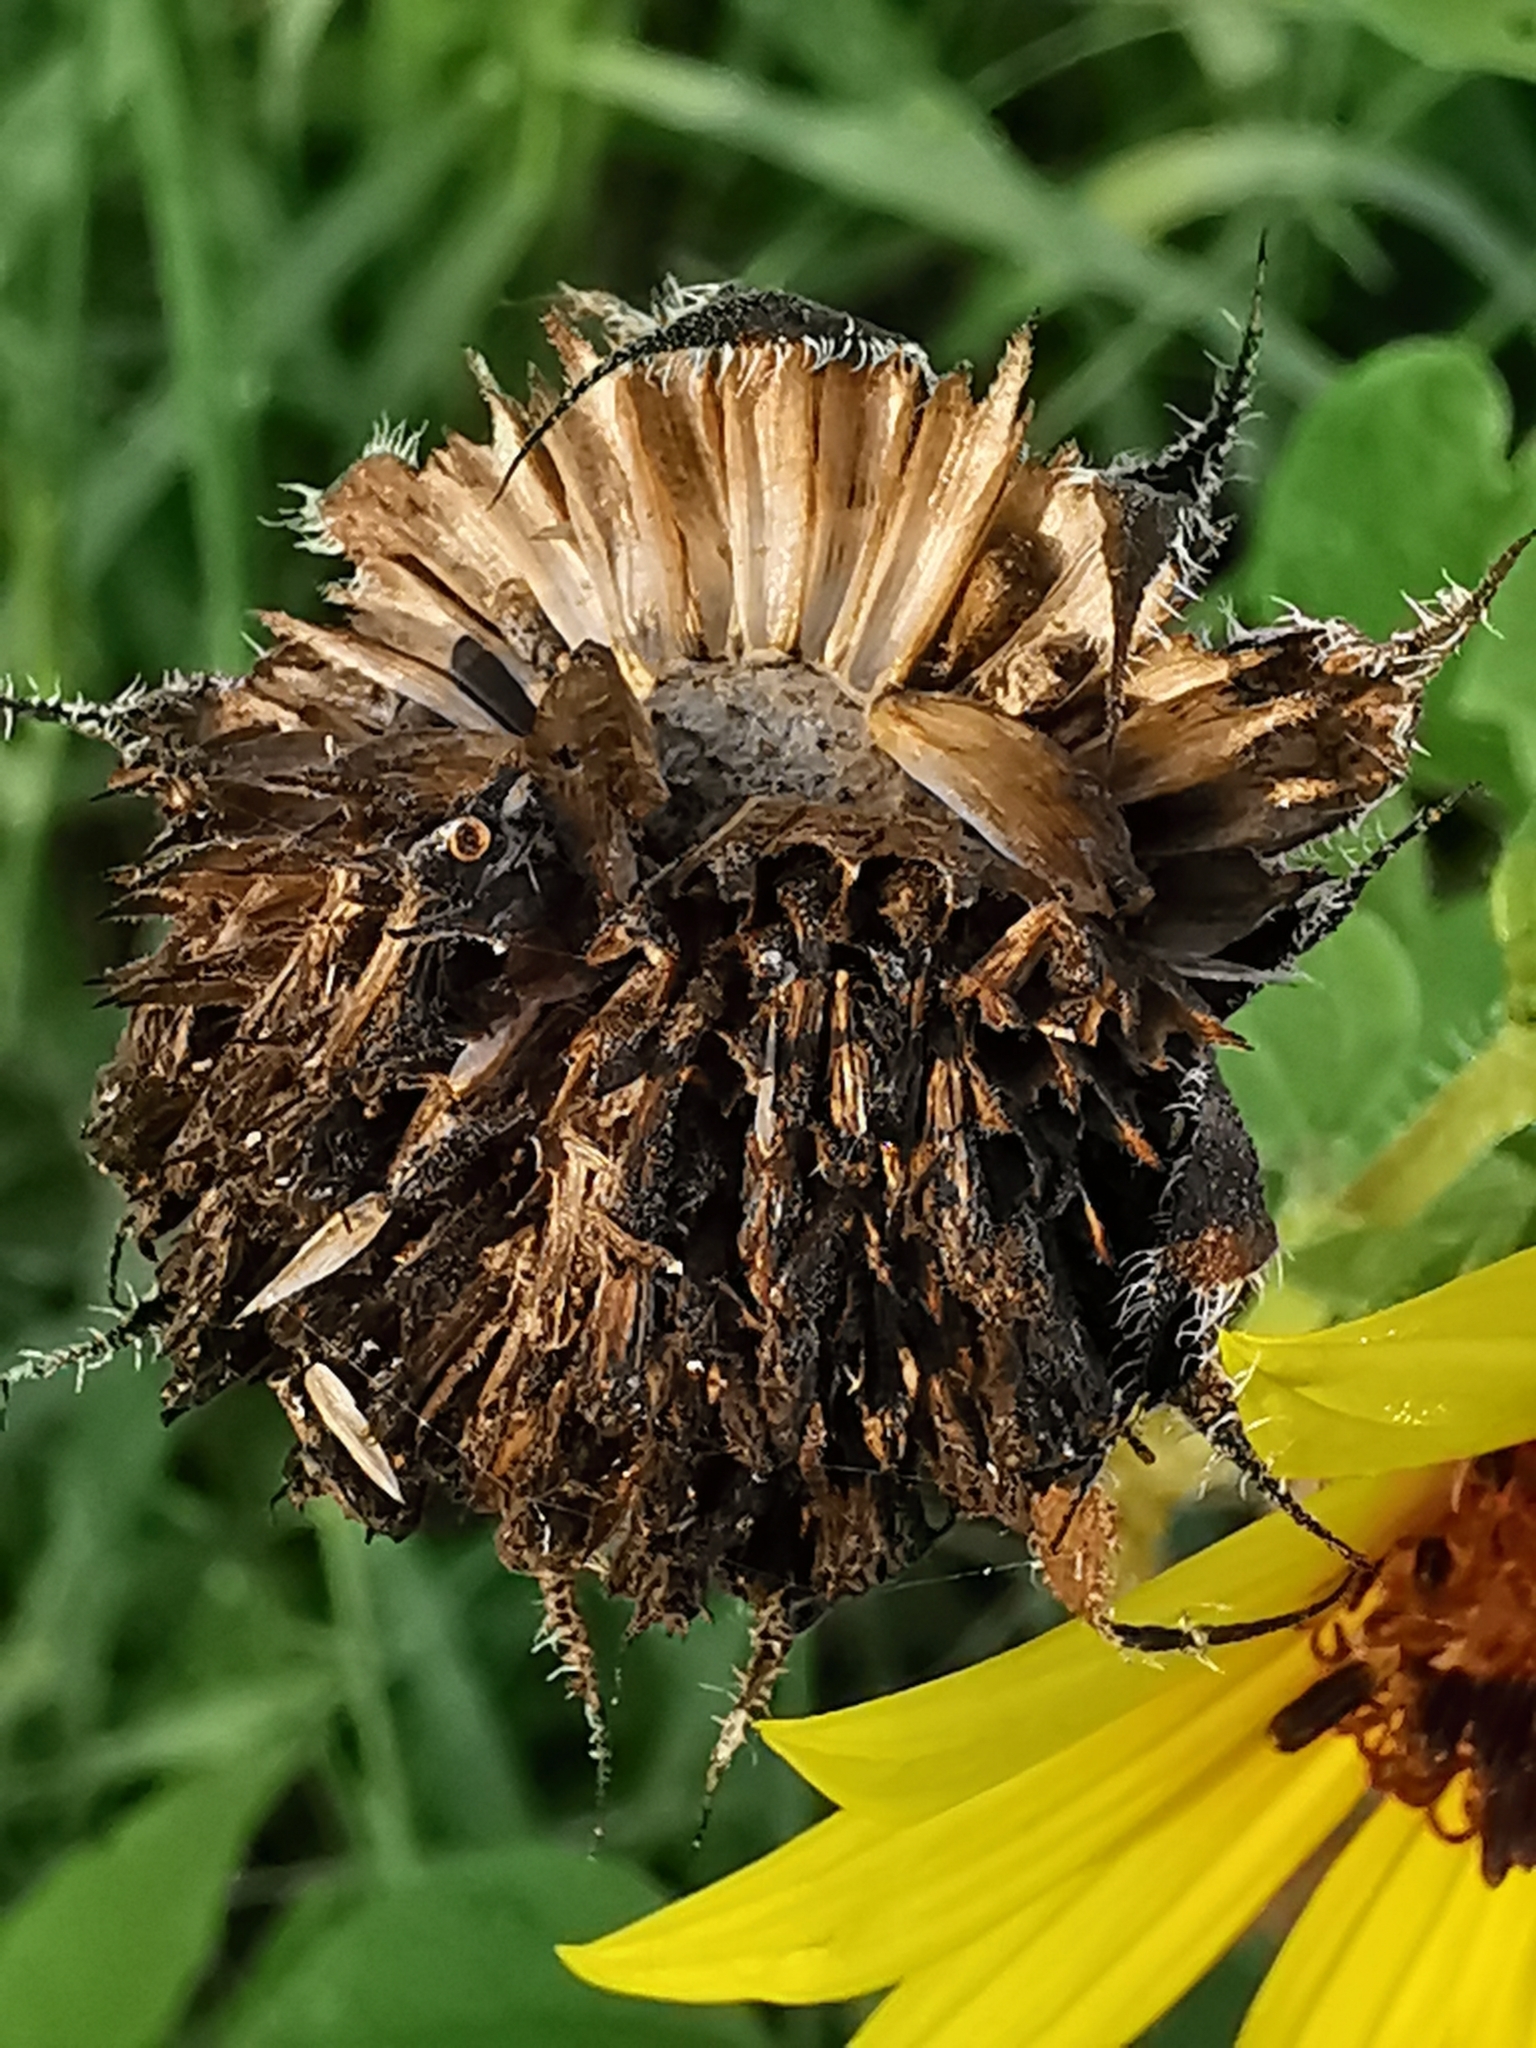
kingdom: Plantae
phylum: Tracheophyta
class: Magnoliopsida
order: Asterales
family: Asteraceae
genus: Helianthus
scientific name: Helianthus annuus
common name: Sunflower
